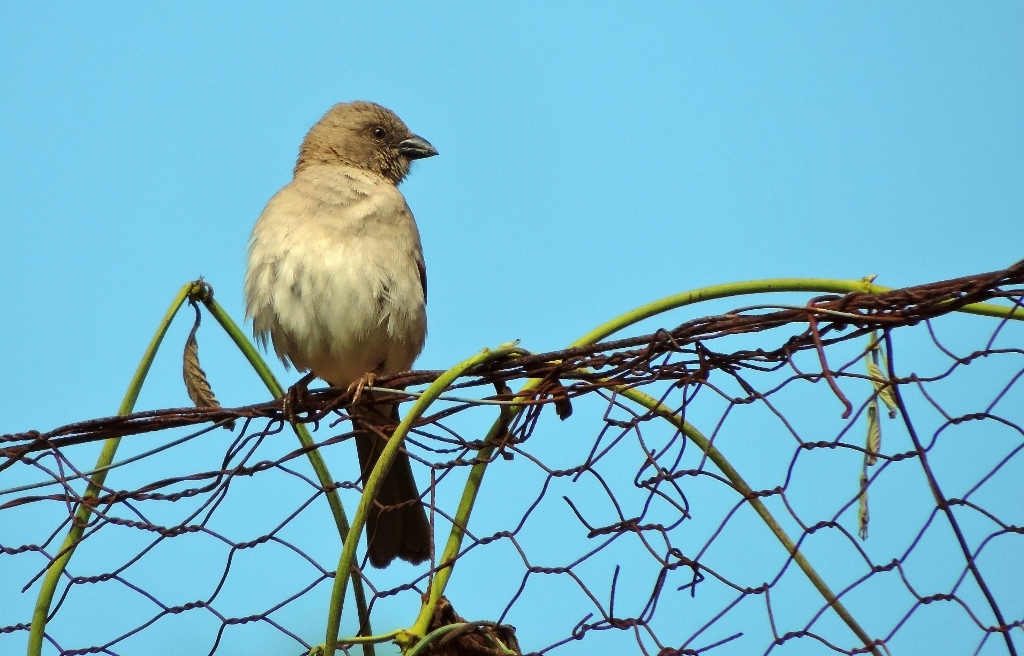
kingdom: Animalia
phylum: Chordata
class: Aves
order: Passeriformes
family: Passeridae
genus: Passer
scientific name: Passer diffusus
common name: Southern grey-headed sparrow
